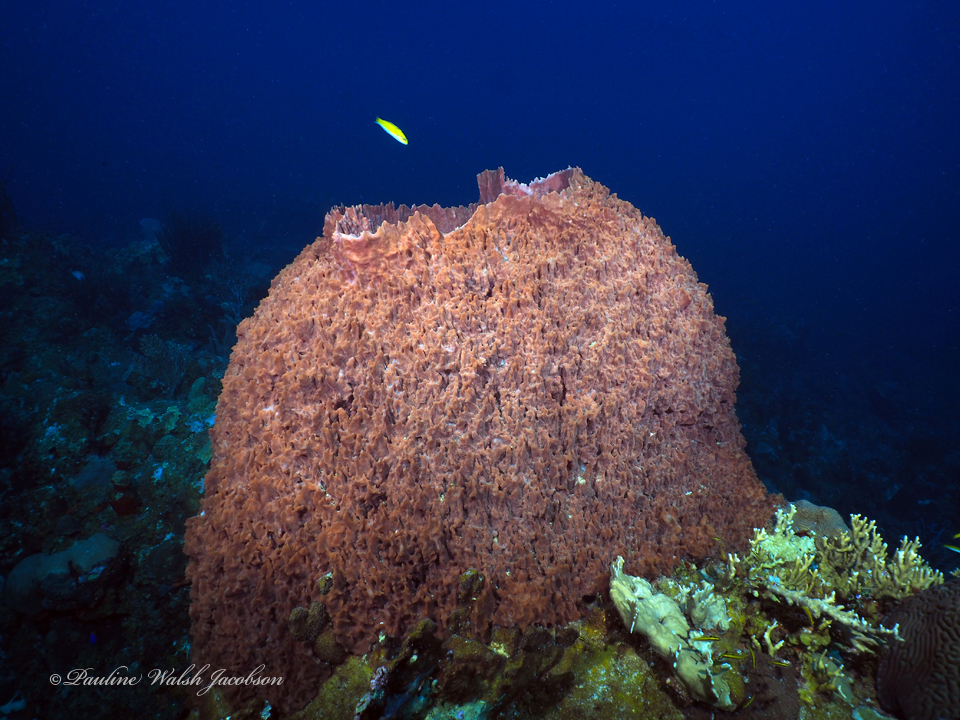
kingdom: Animalia
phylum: Porifera
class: Demospongiae
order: Haplosclerida
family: Petrosiidae
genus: Xestospongia
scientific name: Xestospongia muta
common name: Giant barrel sponge
